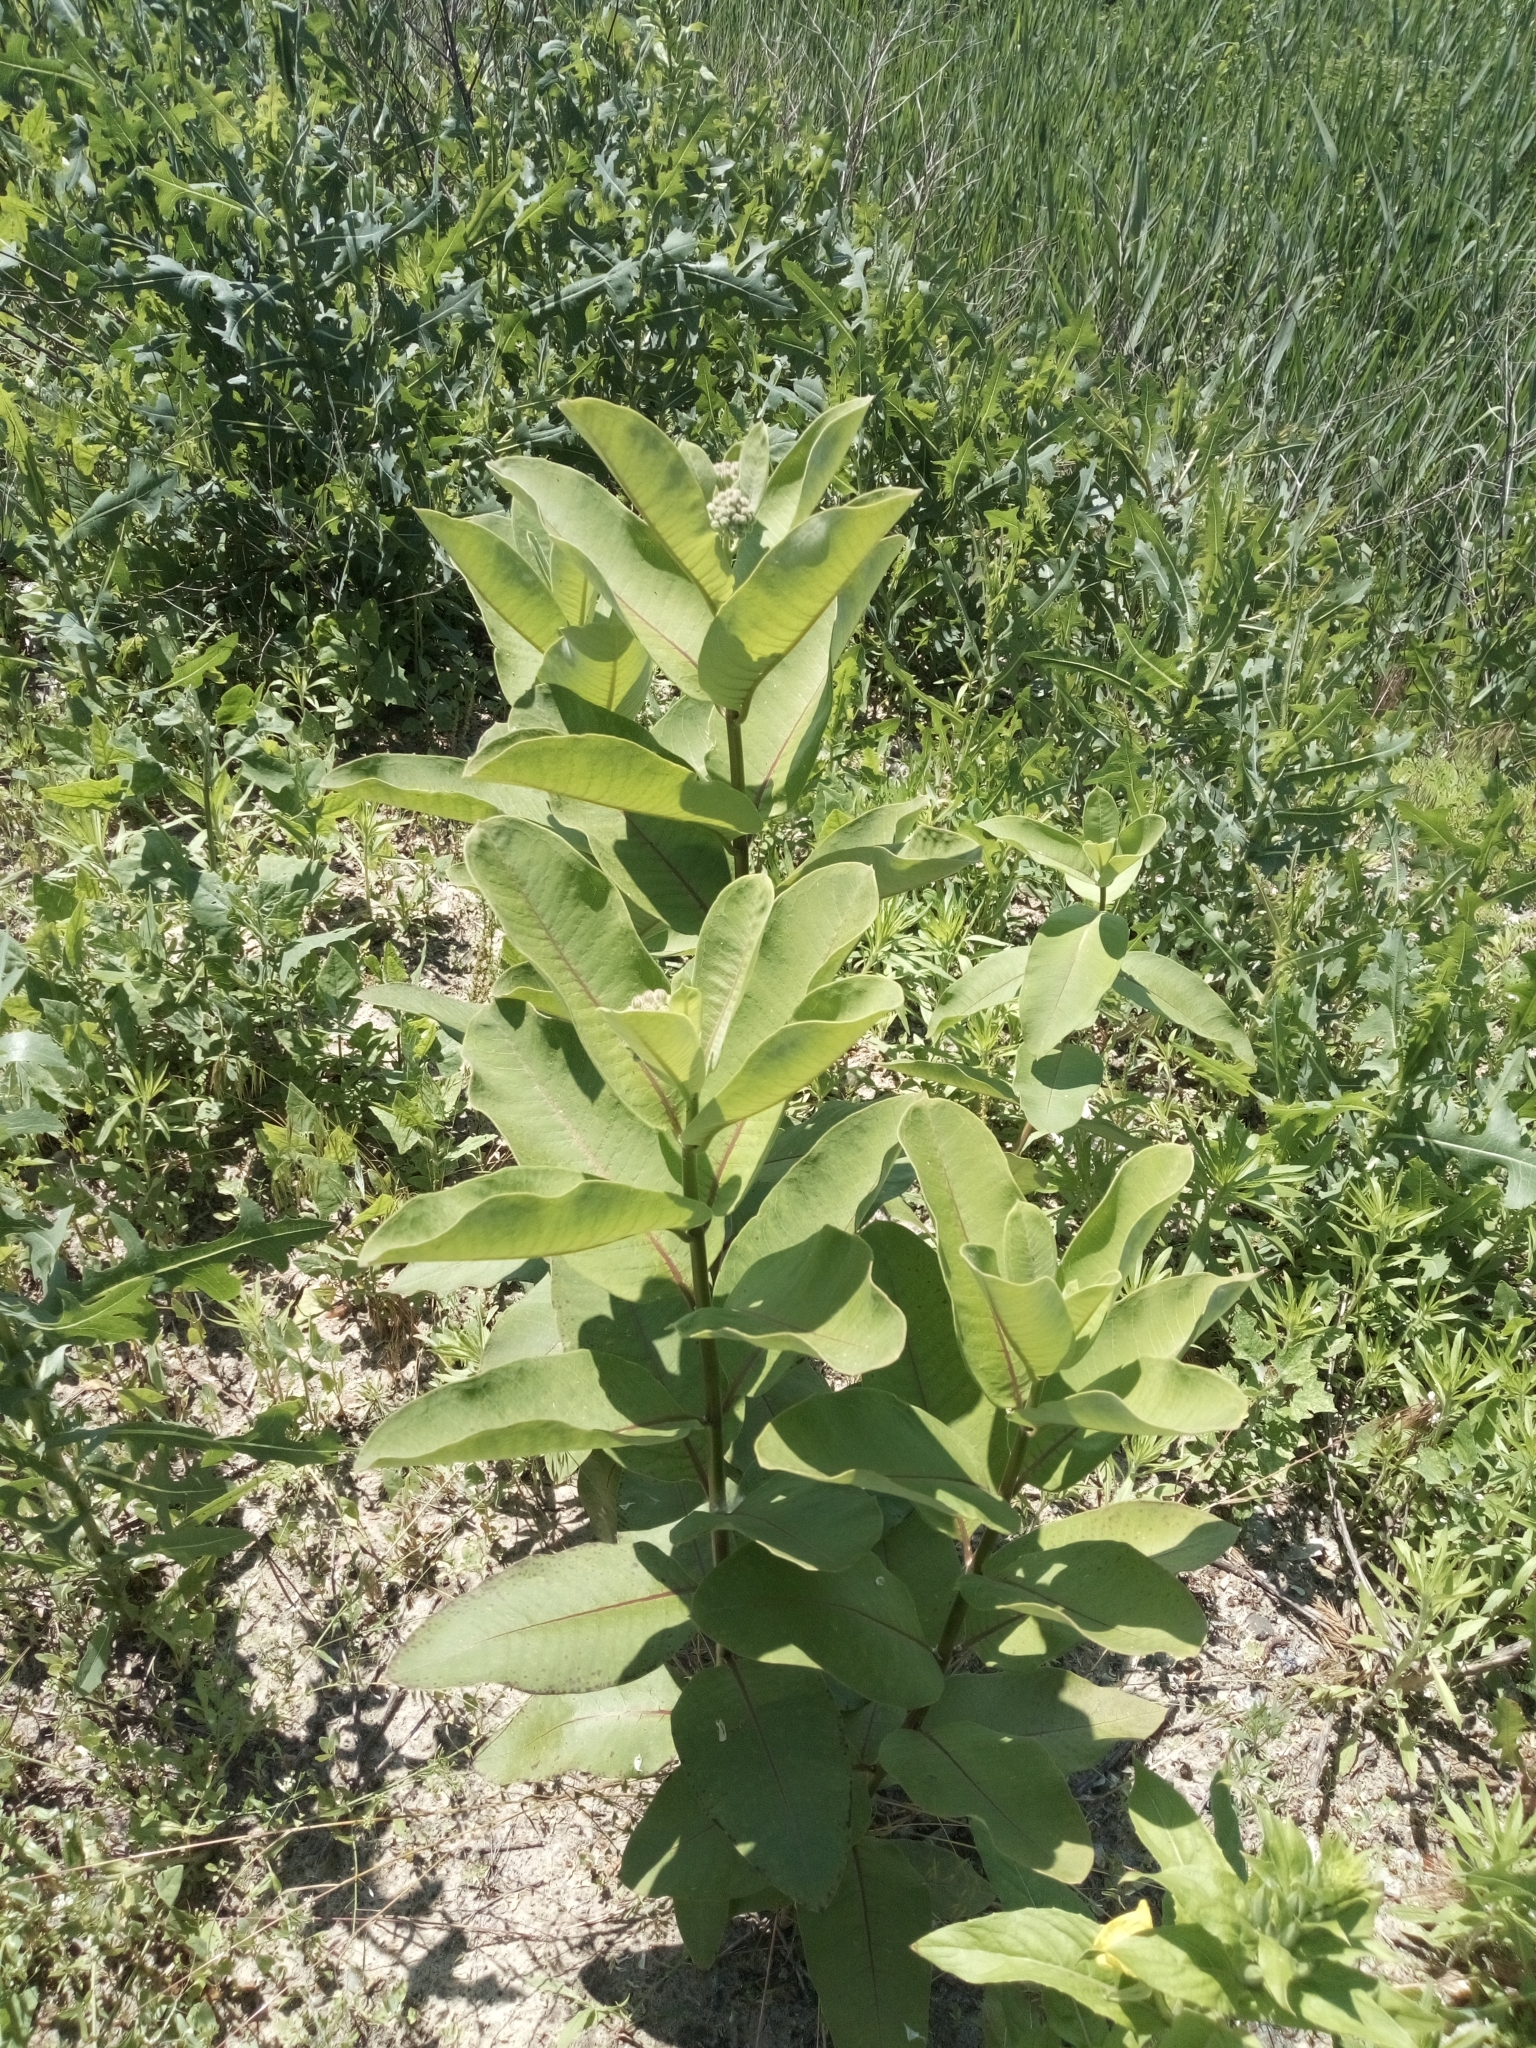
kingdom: Plantae
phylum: Tracheophyta
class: Magnoliopsida
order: Gentianales
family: Apocynaceae
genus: Asclepias
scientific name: Asclepias syriaca
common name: Common milkweed
